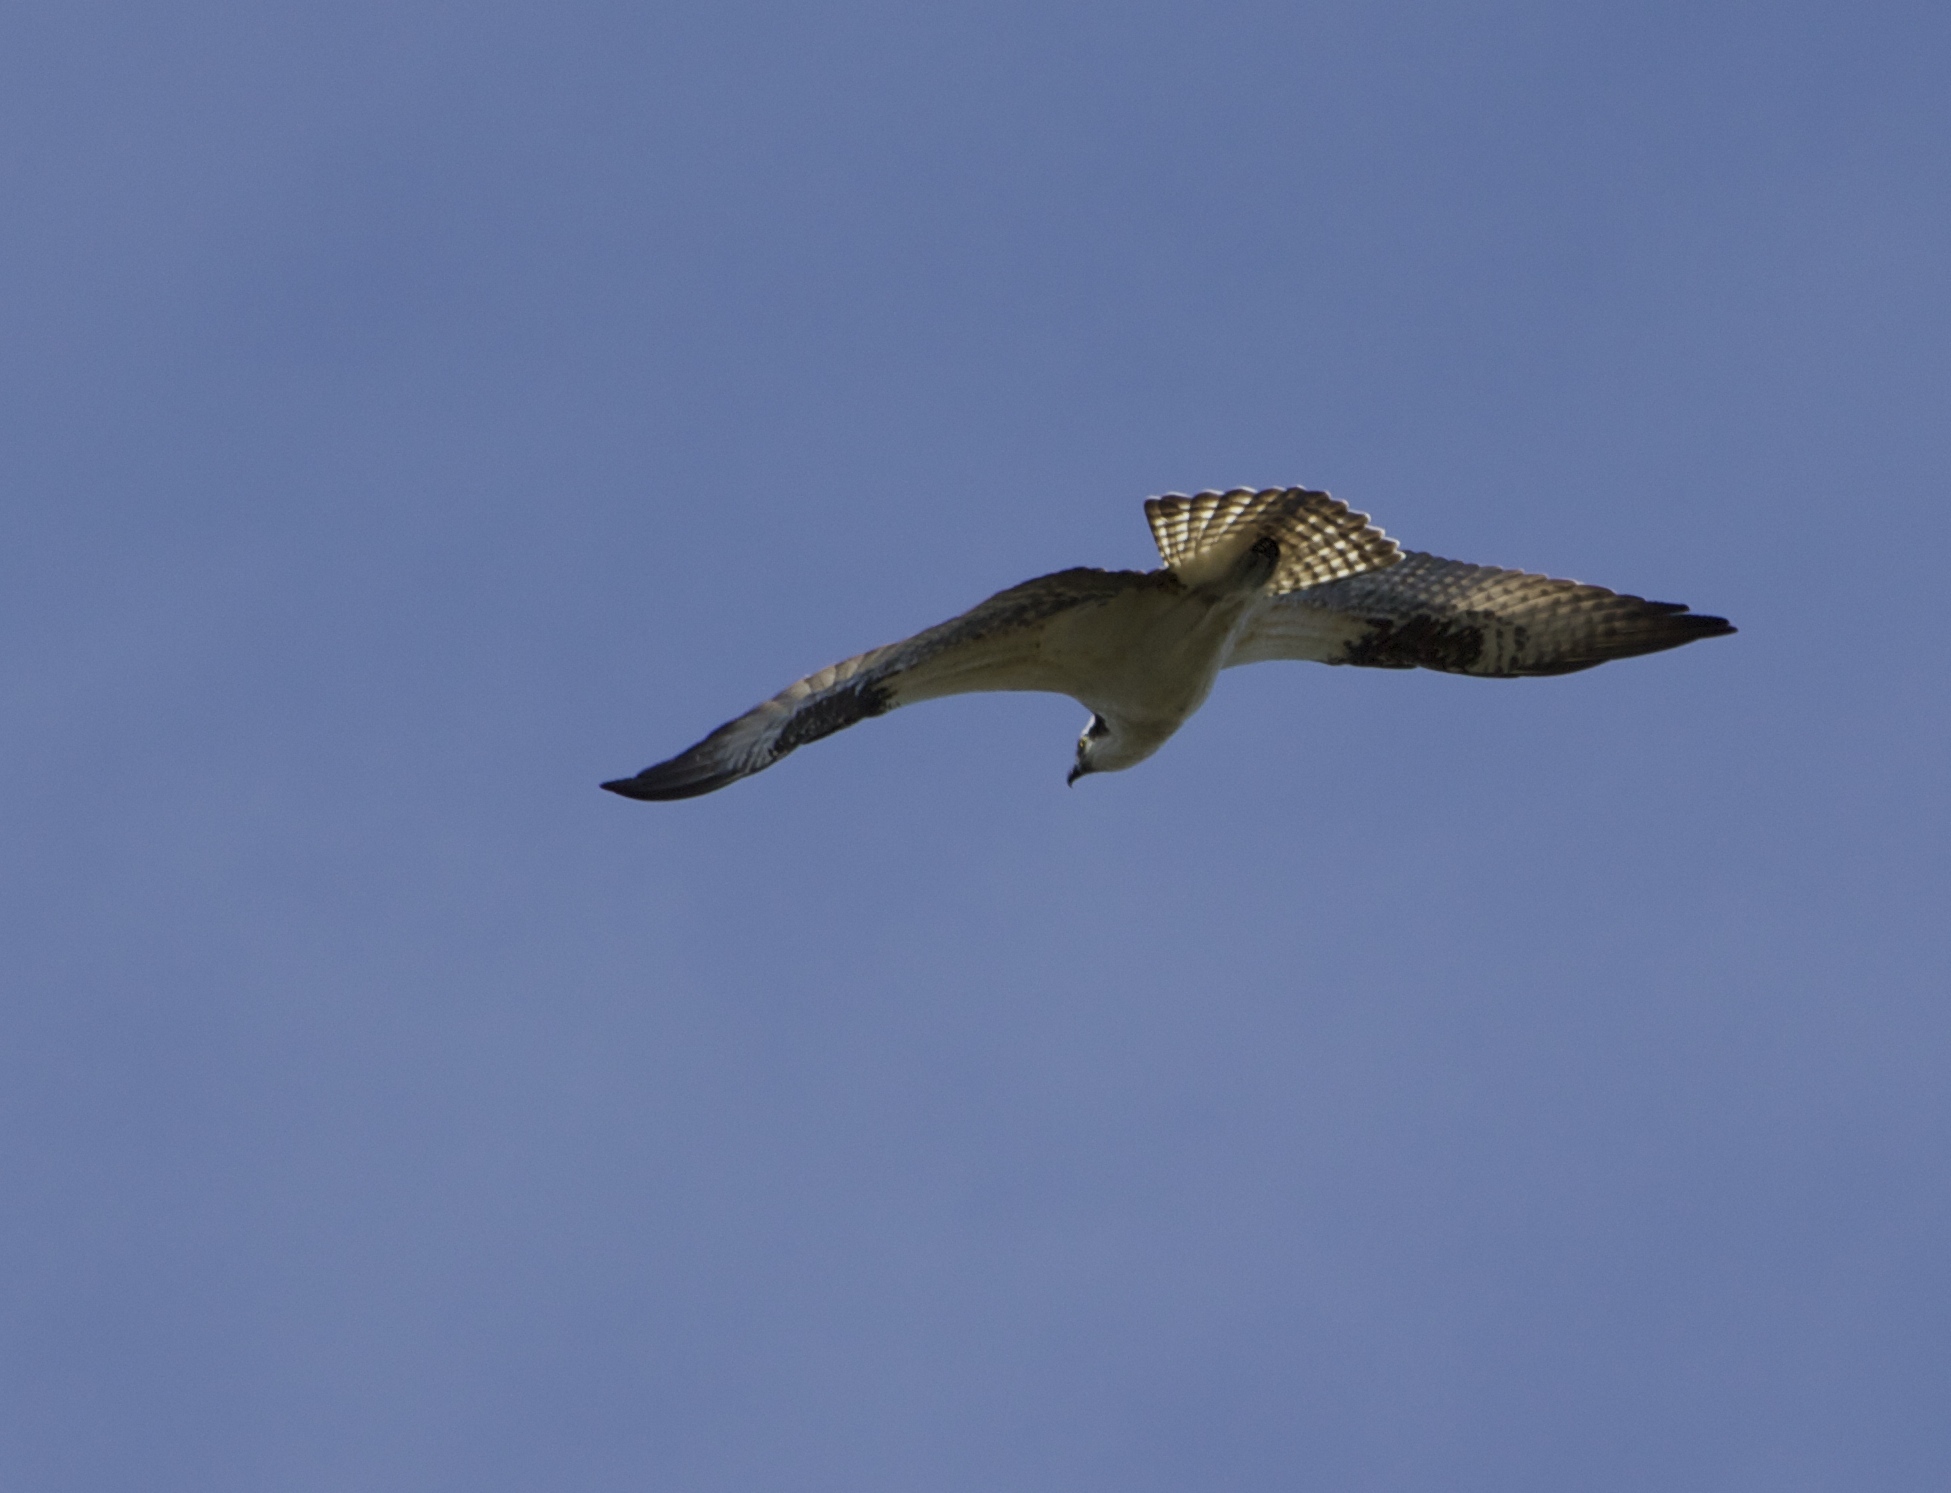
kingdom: Animalia
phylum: Chordata
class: Aves
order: Accipitriformes
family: Pandionidae
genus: Pandion
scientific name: Pandion haliaetus
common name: Osprey
